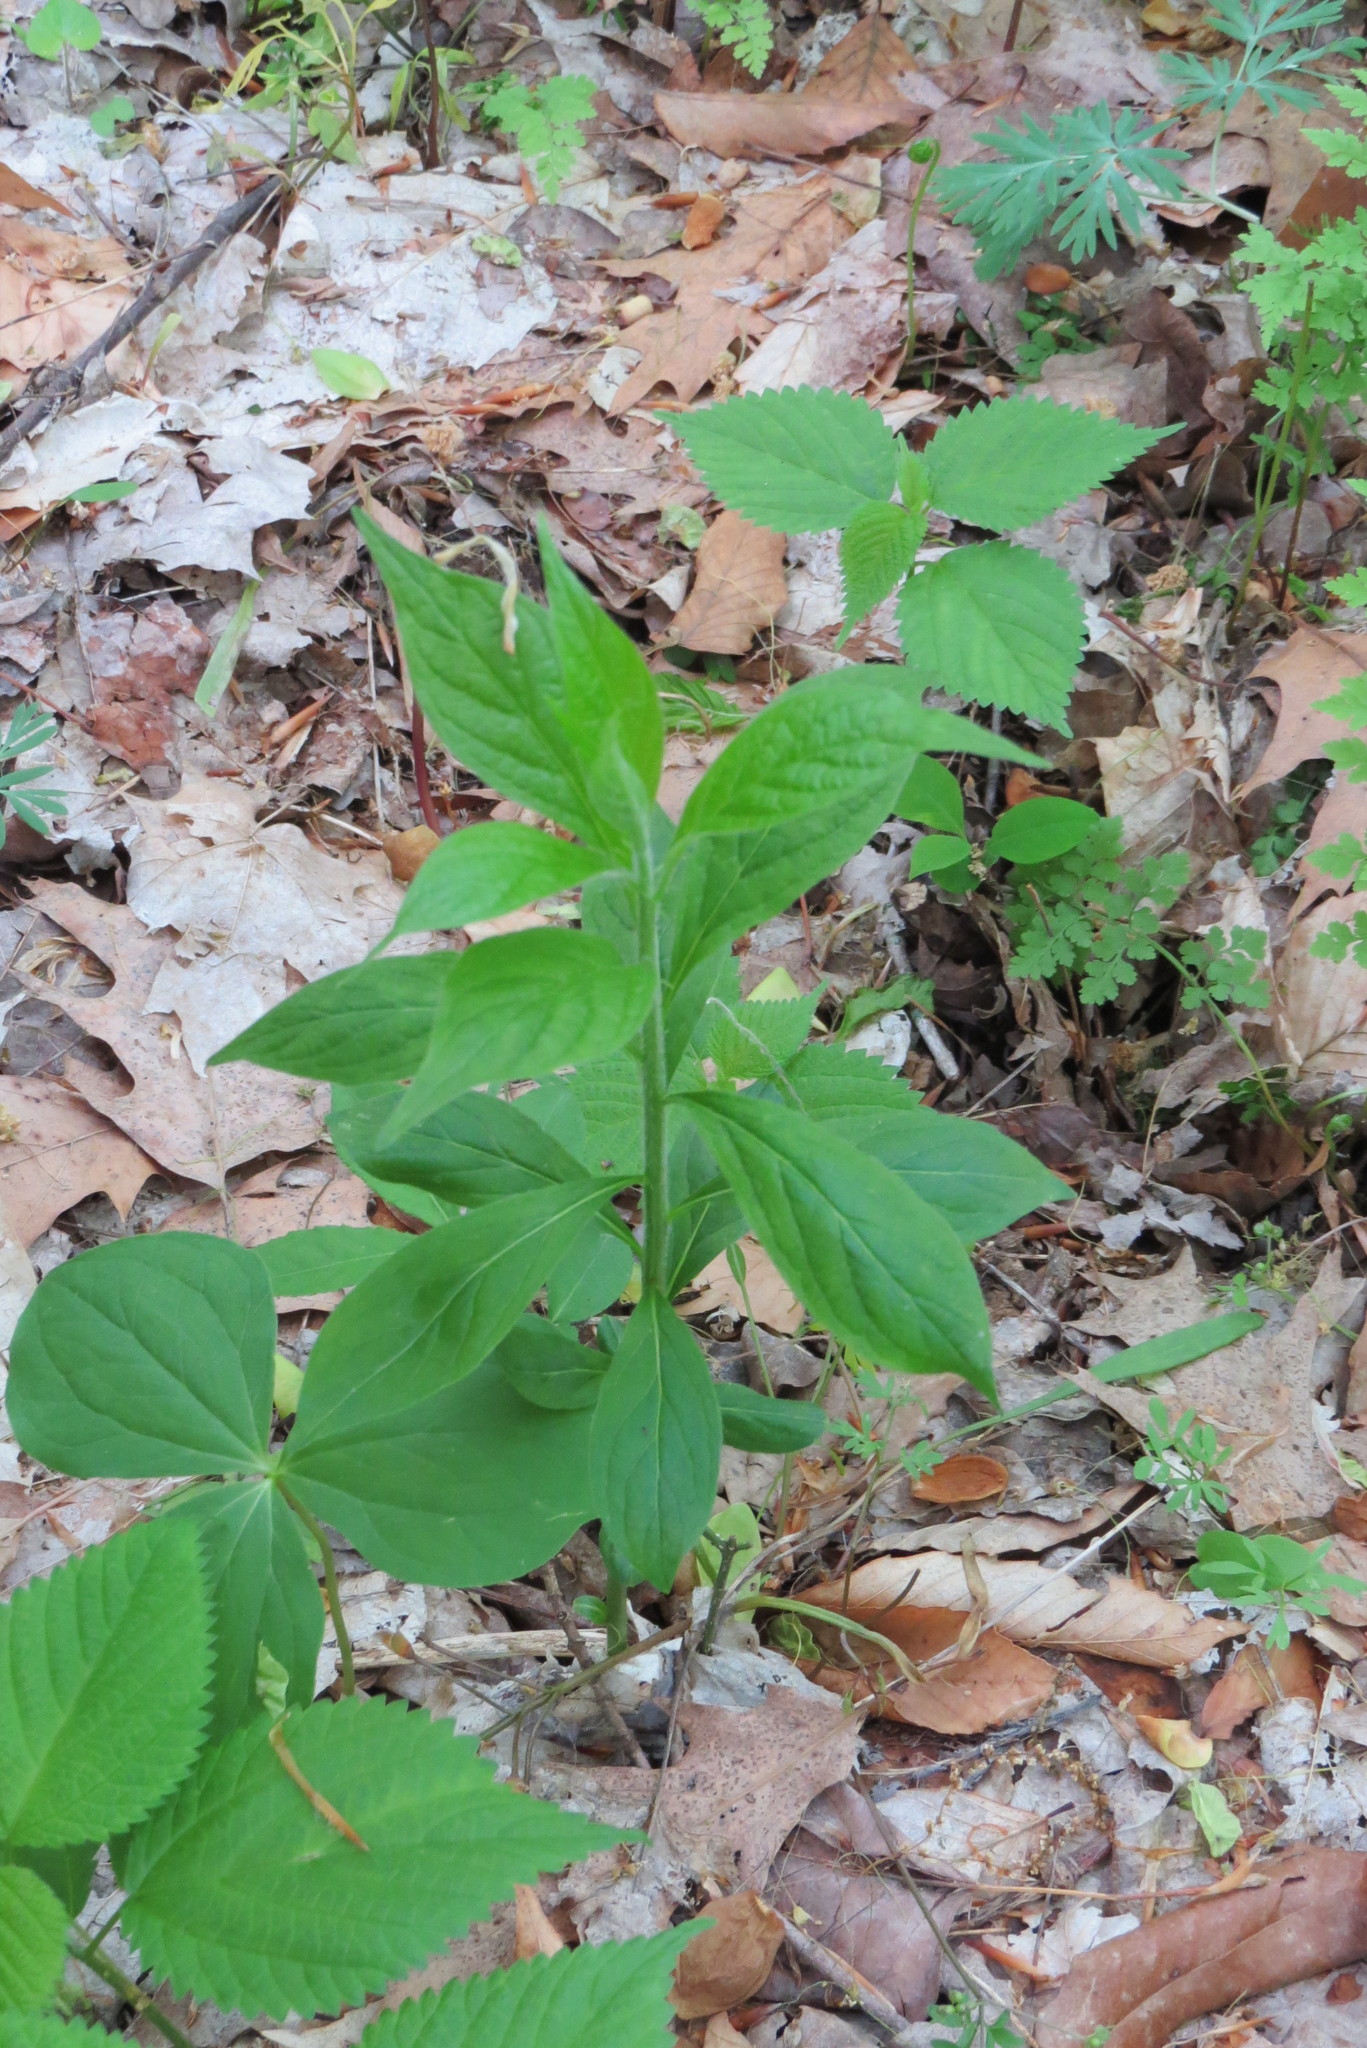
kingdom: Plantae
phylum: Tracheophyta
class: Magnoliopsida
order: Malpighiales
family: Violaceae
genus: Cubelium
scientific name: Cubelium concolor
